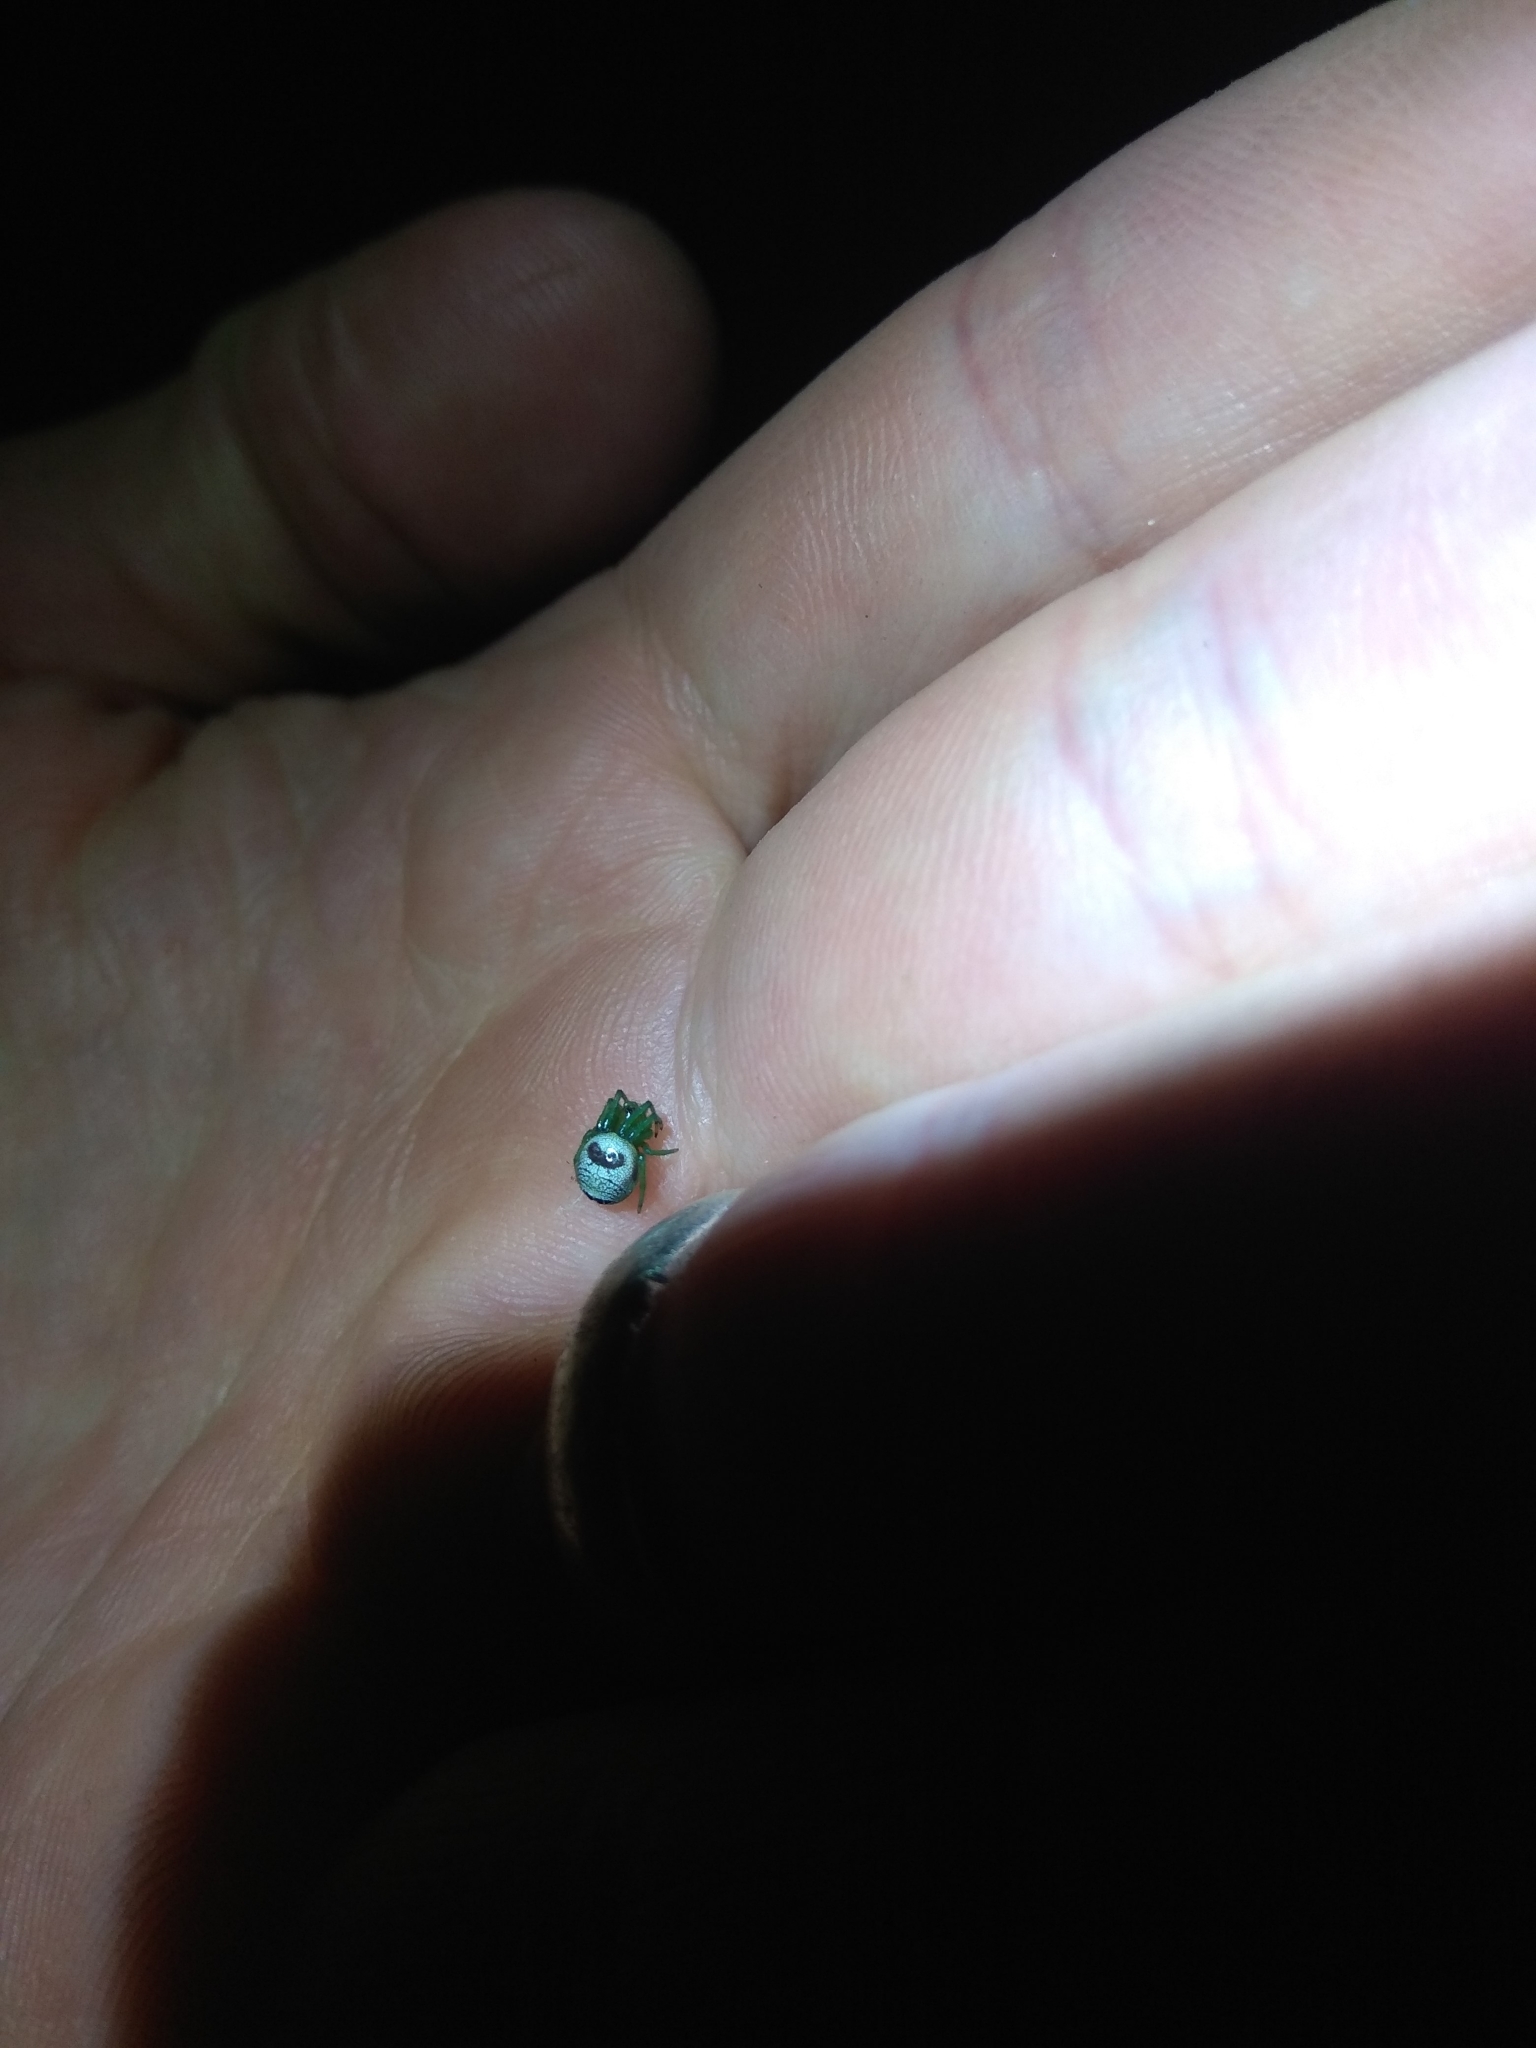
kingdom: Animalia
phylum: Arthropoda
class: Arachnida
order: Araneae
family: Araneidae
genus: Bijoaraneus
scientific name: Bijoaraneus mitificus
